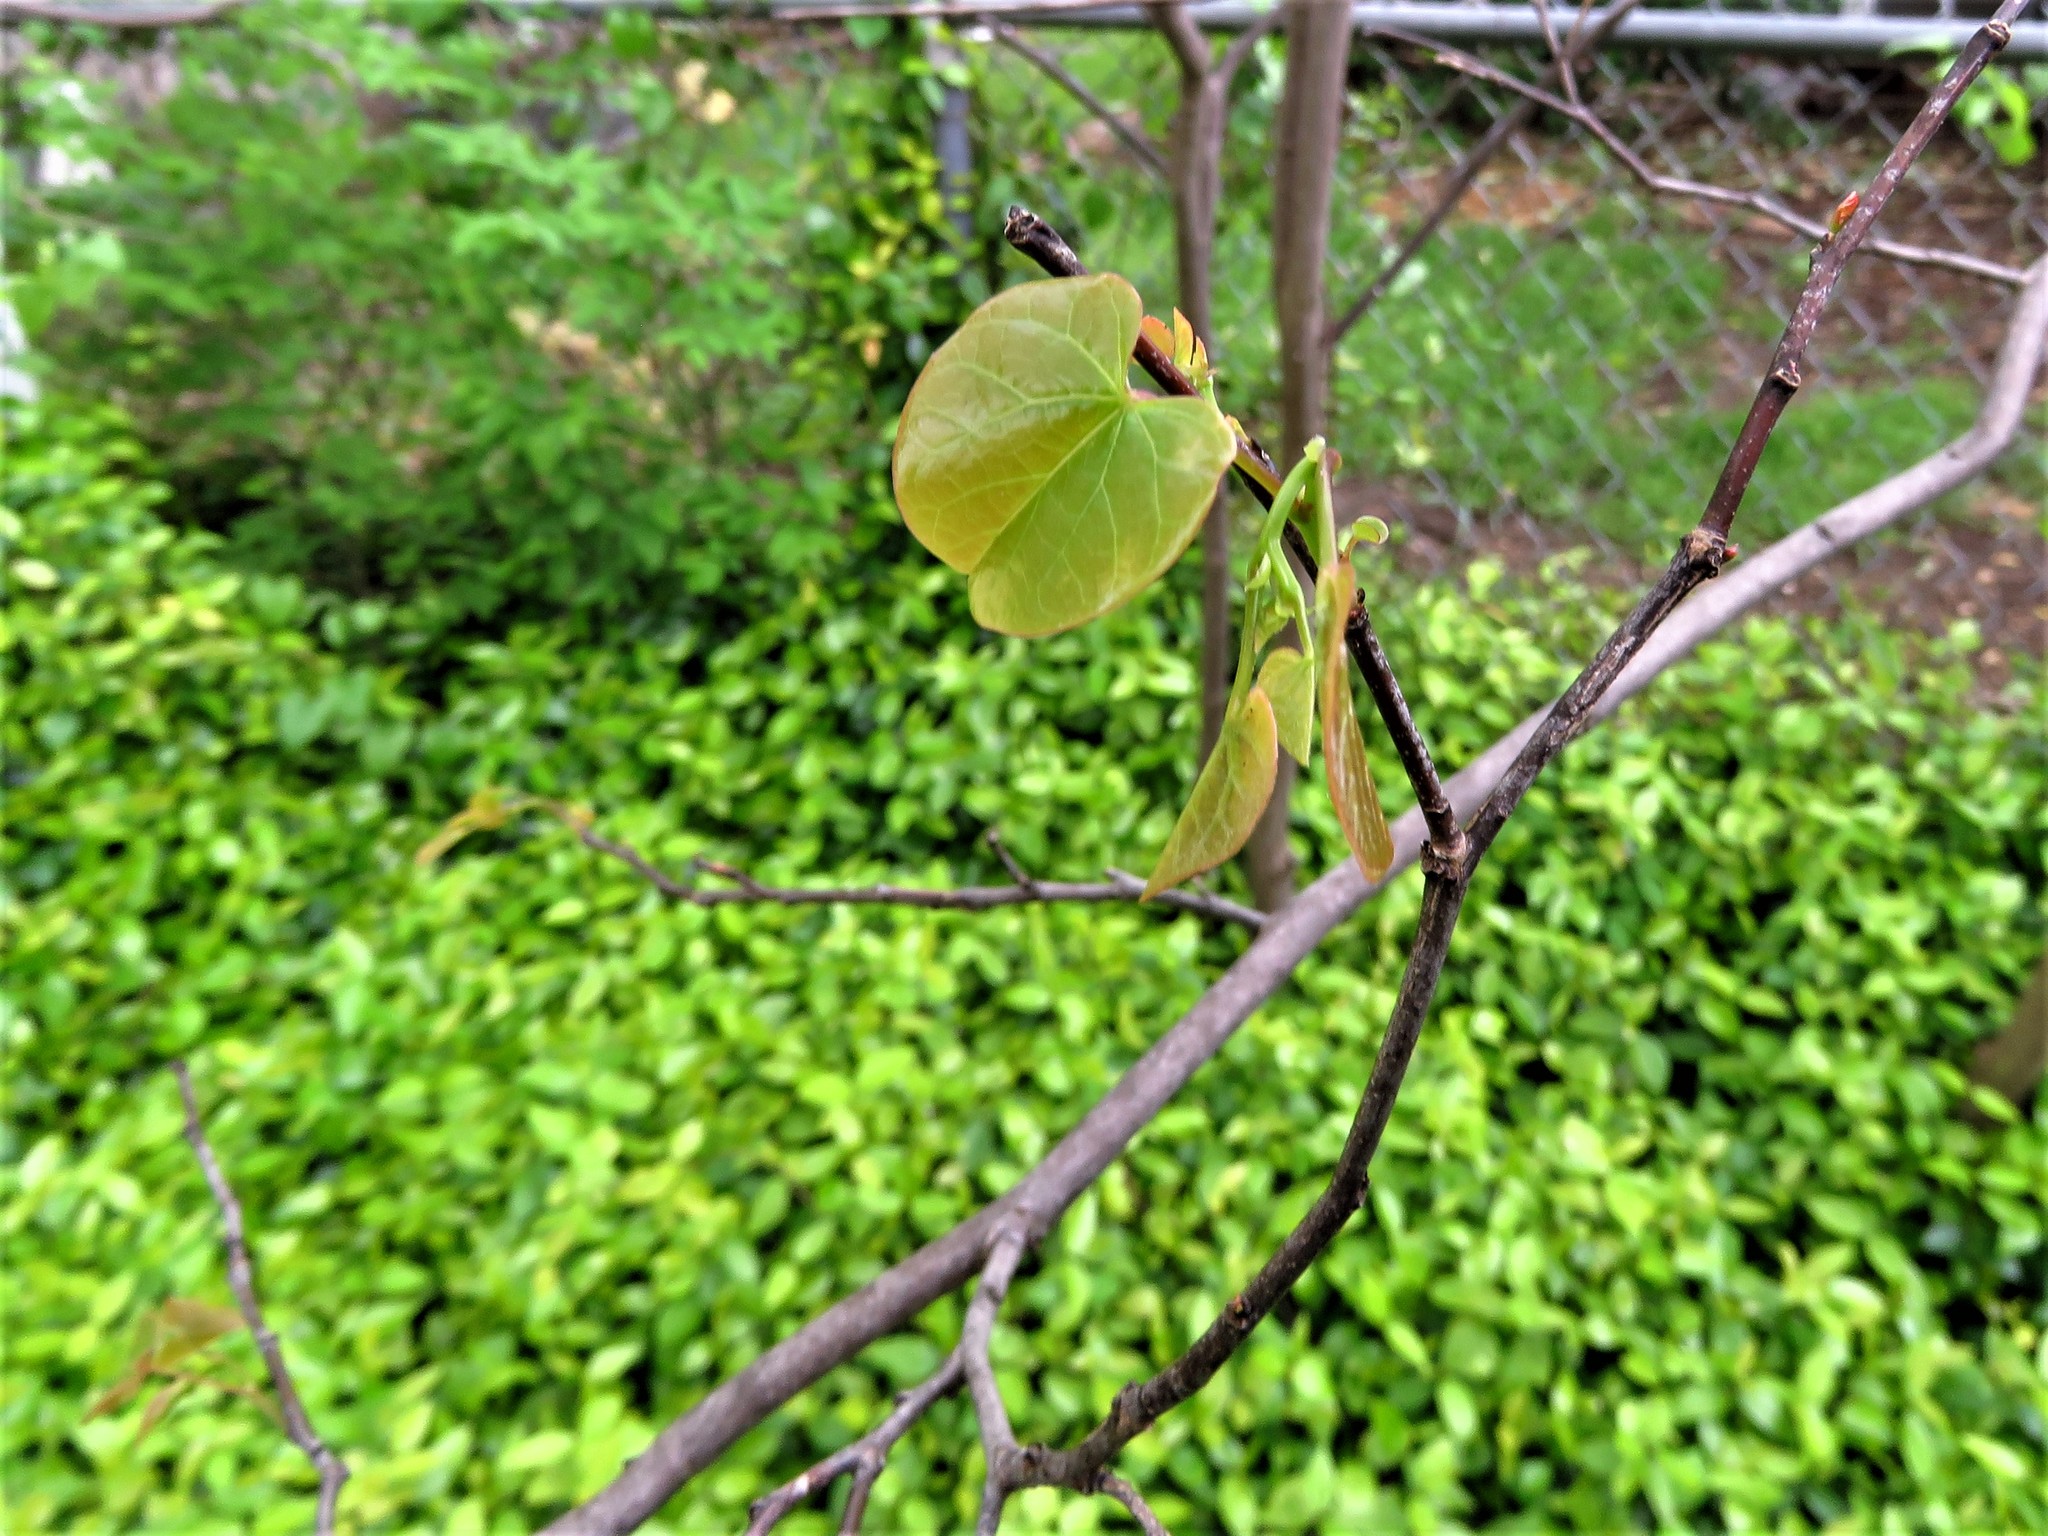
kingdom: Plantae
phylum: Tracheophyta
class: Magnoliopsida
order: Fabales
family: Fabaceae
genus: Cercis
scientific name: Cercis canadensis
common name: Eastern redbud
